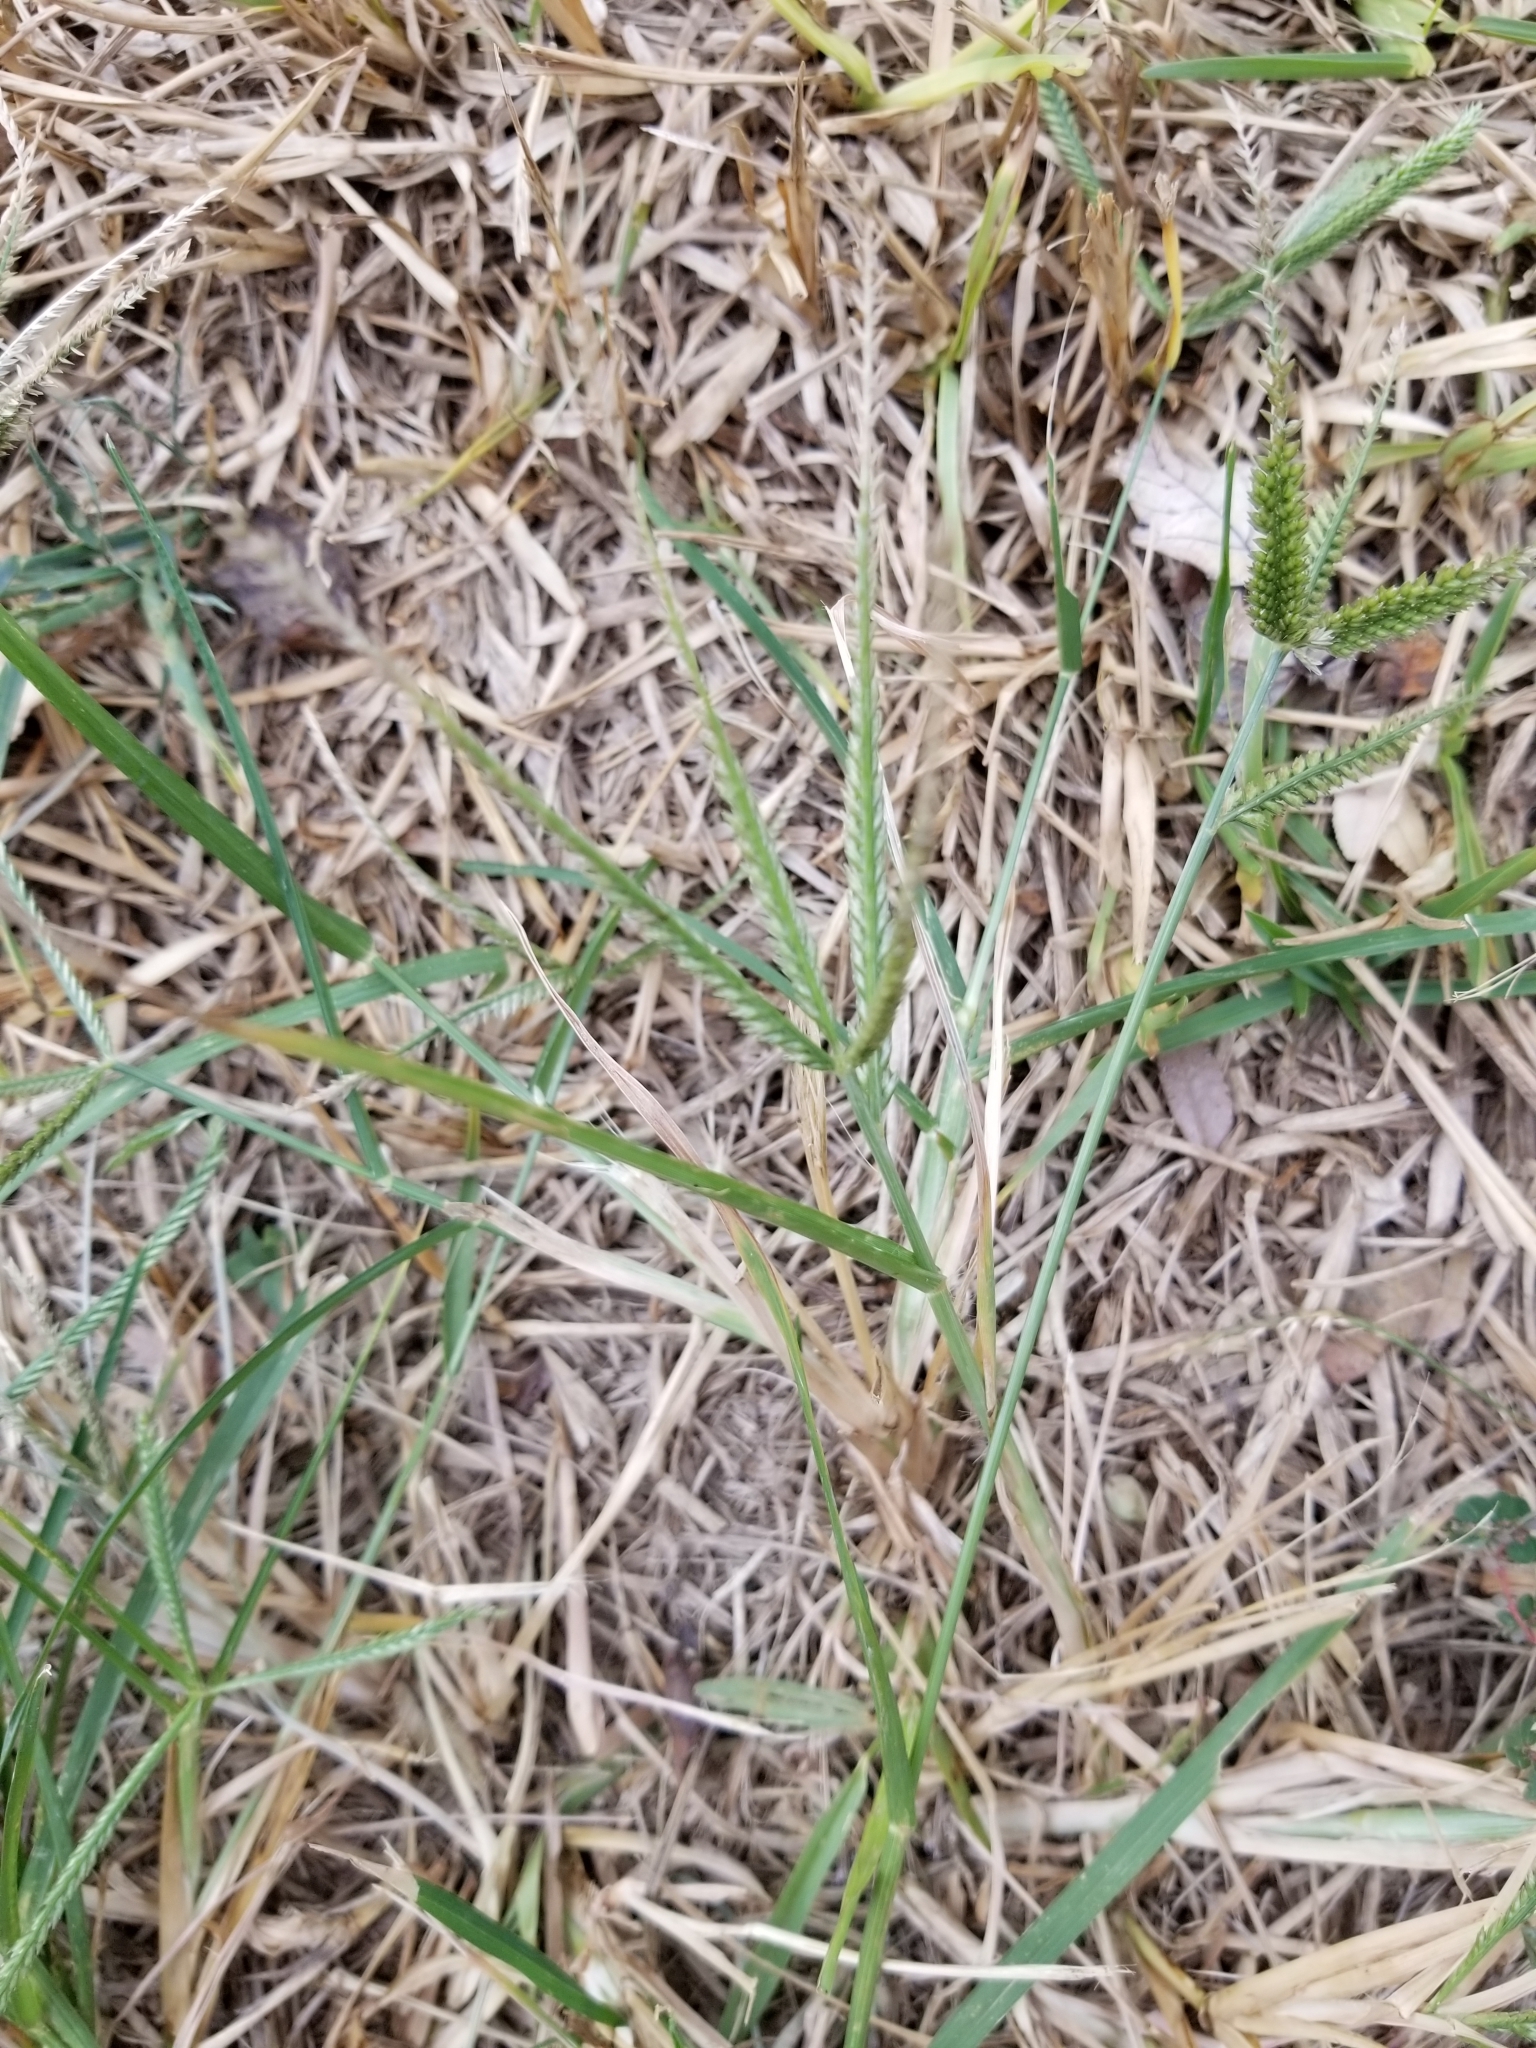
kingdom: Plantae
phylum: Tracheophyta
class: Liliopsida
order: Poales
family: Poaceae
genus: Cynodon
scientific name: Cynodon dactylon
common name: Bermuda grass
